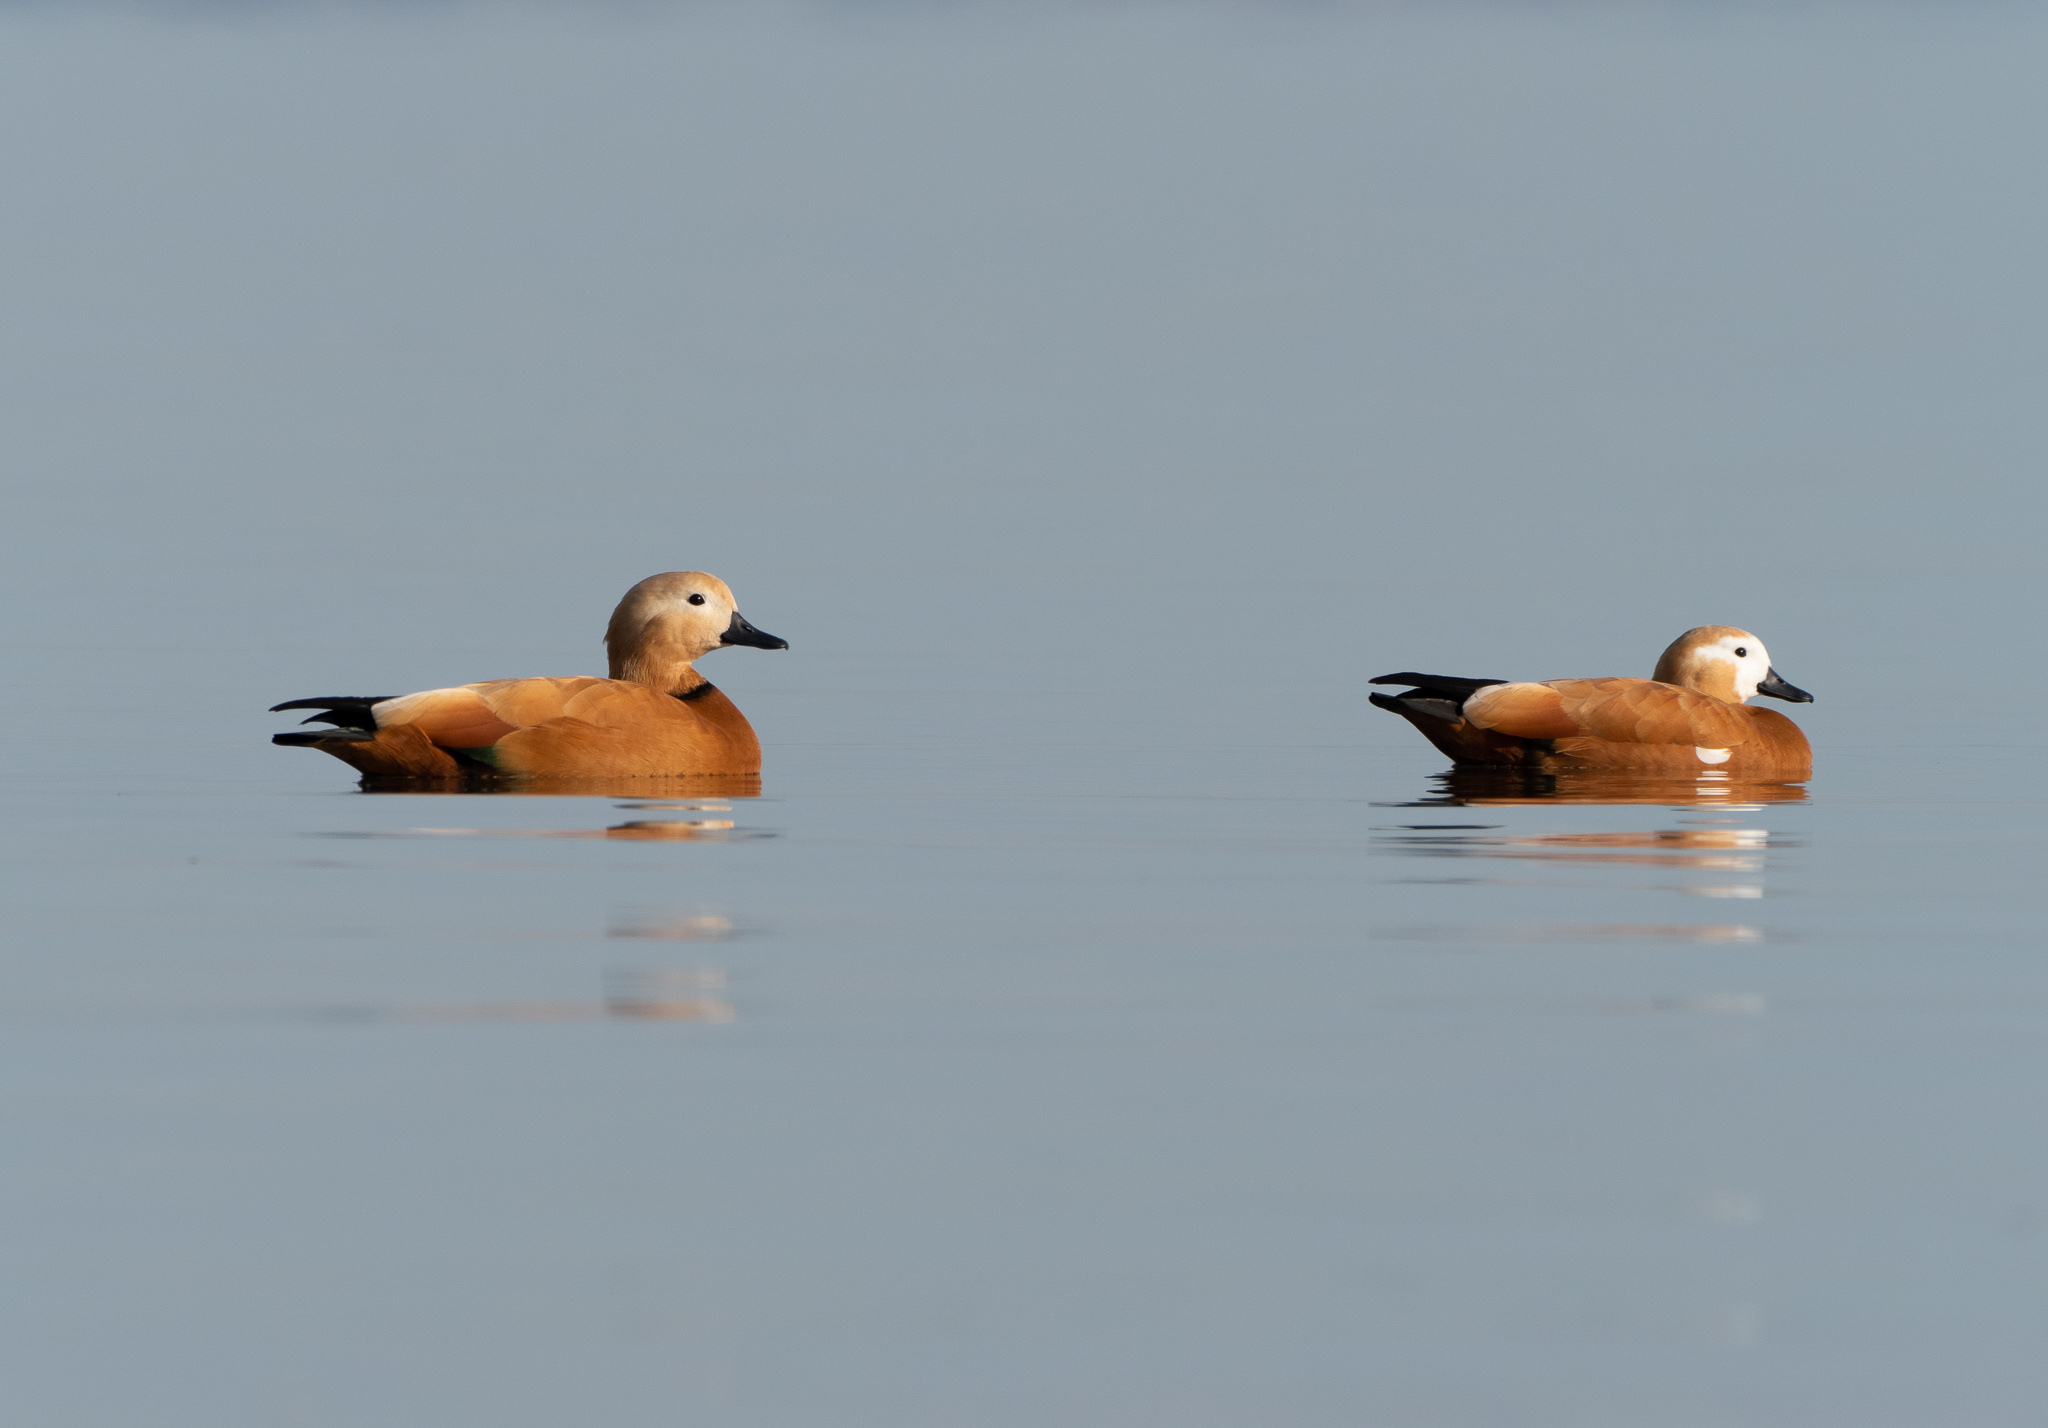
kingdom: Animalia
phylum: Chordata
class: Aves
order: Anseriformes
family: Anatidae
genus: Tadorna
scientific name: Tadorna ferruginea
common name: Ruddy shelduck
